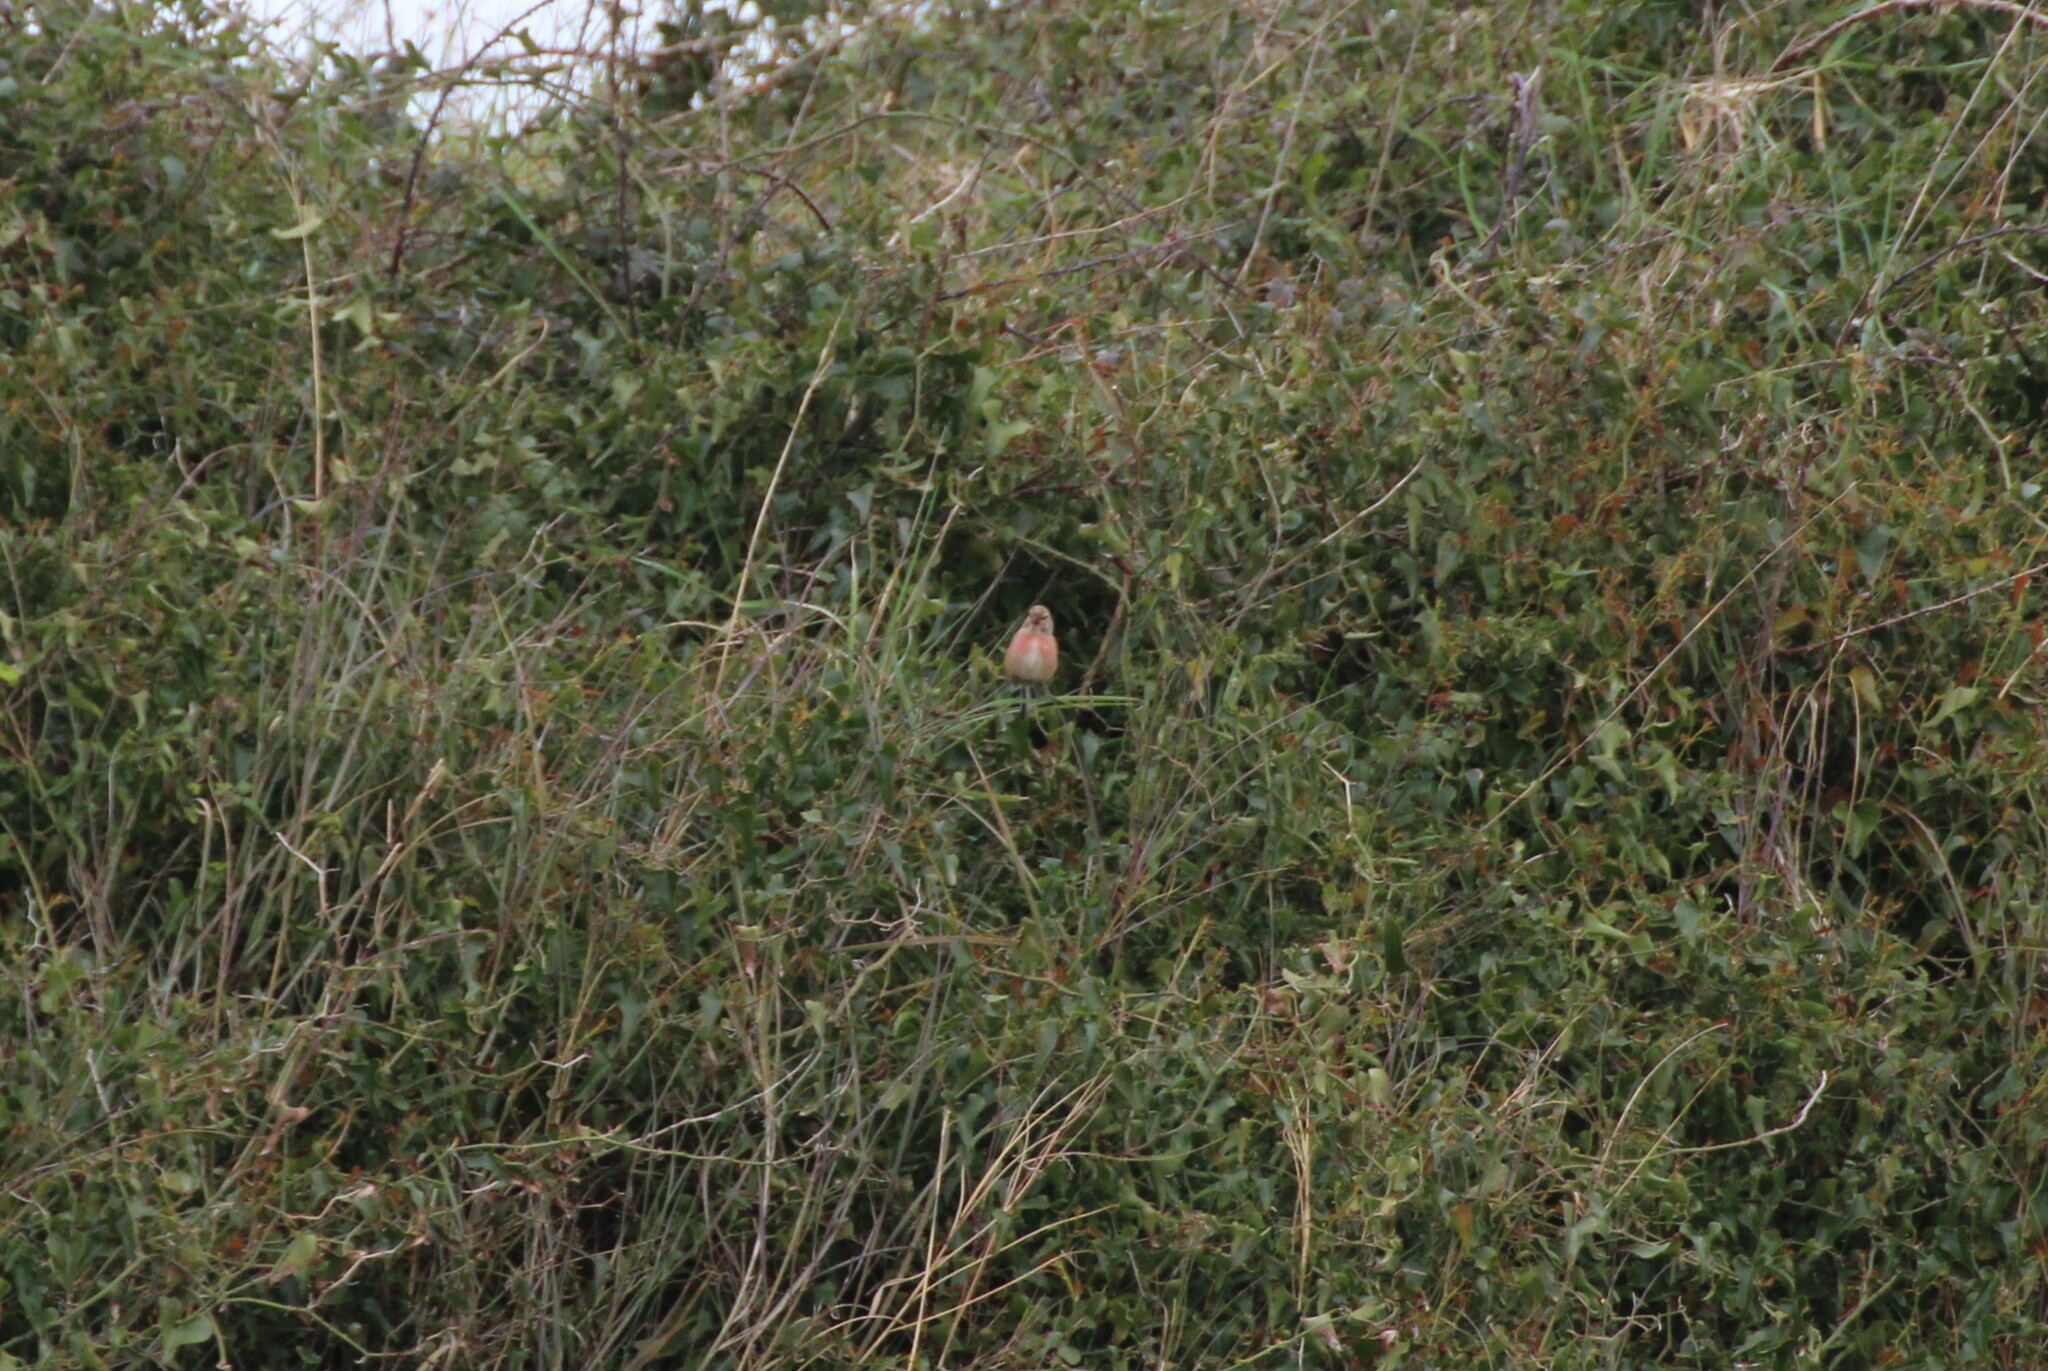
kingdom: Animalia
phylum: Chordata
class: Aves
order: Passeriformes
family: Fringillidae
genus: Linaria
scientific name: Linaria cannabina
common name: Common linnet
